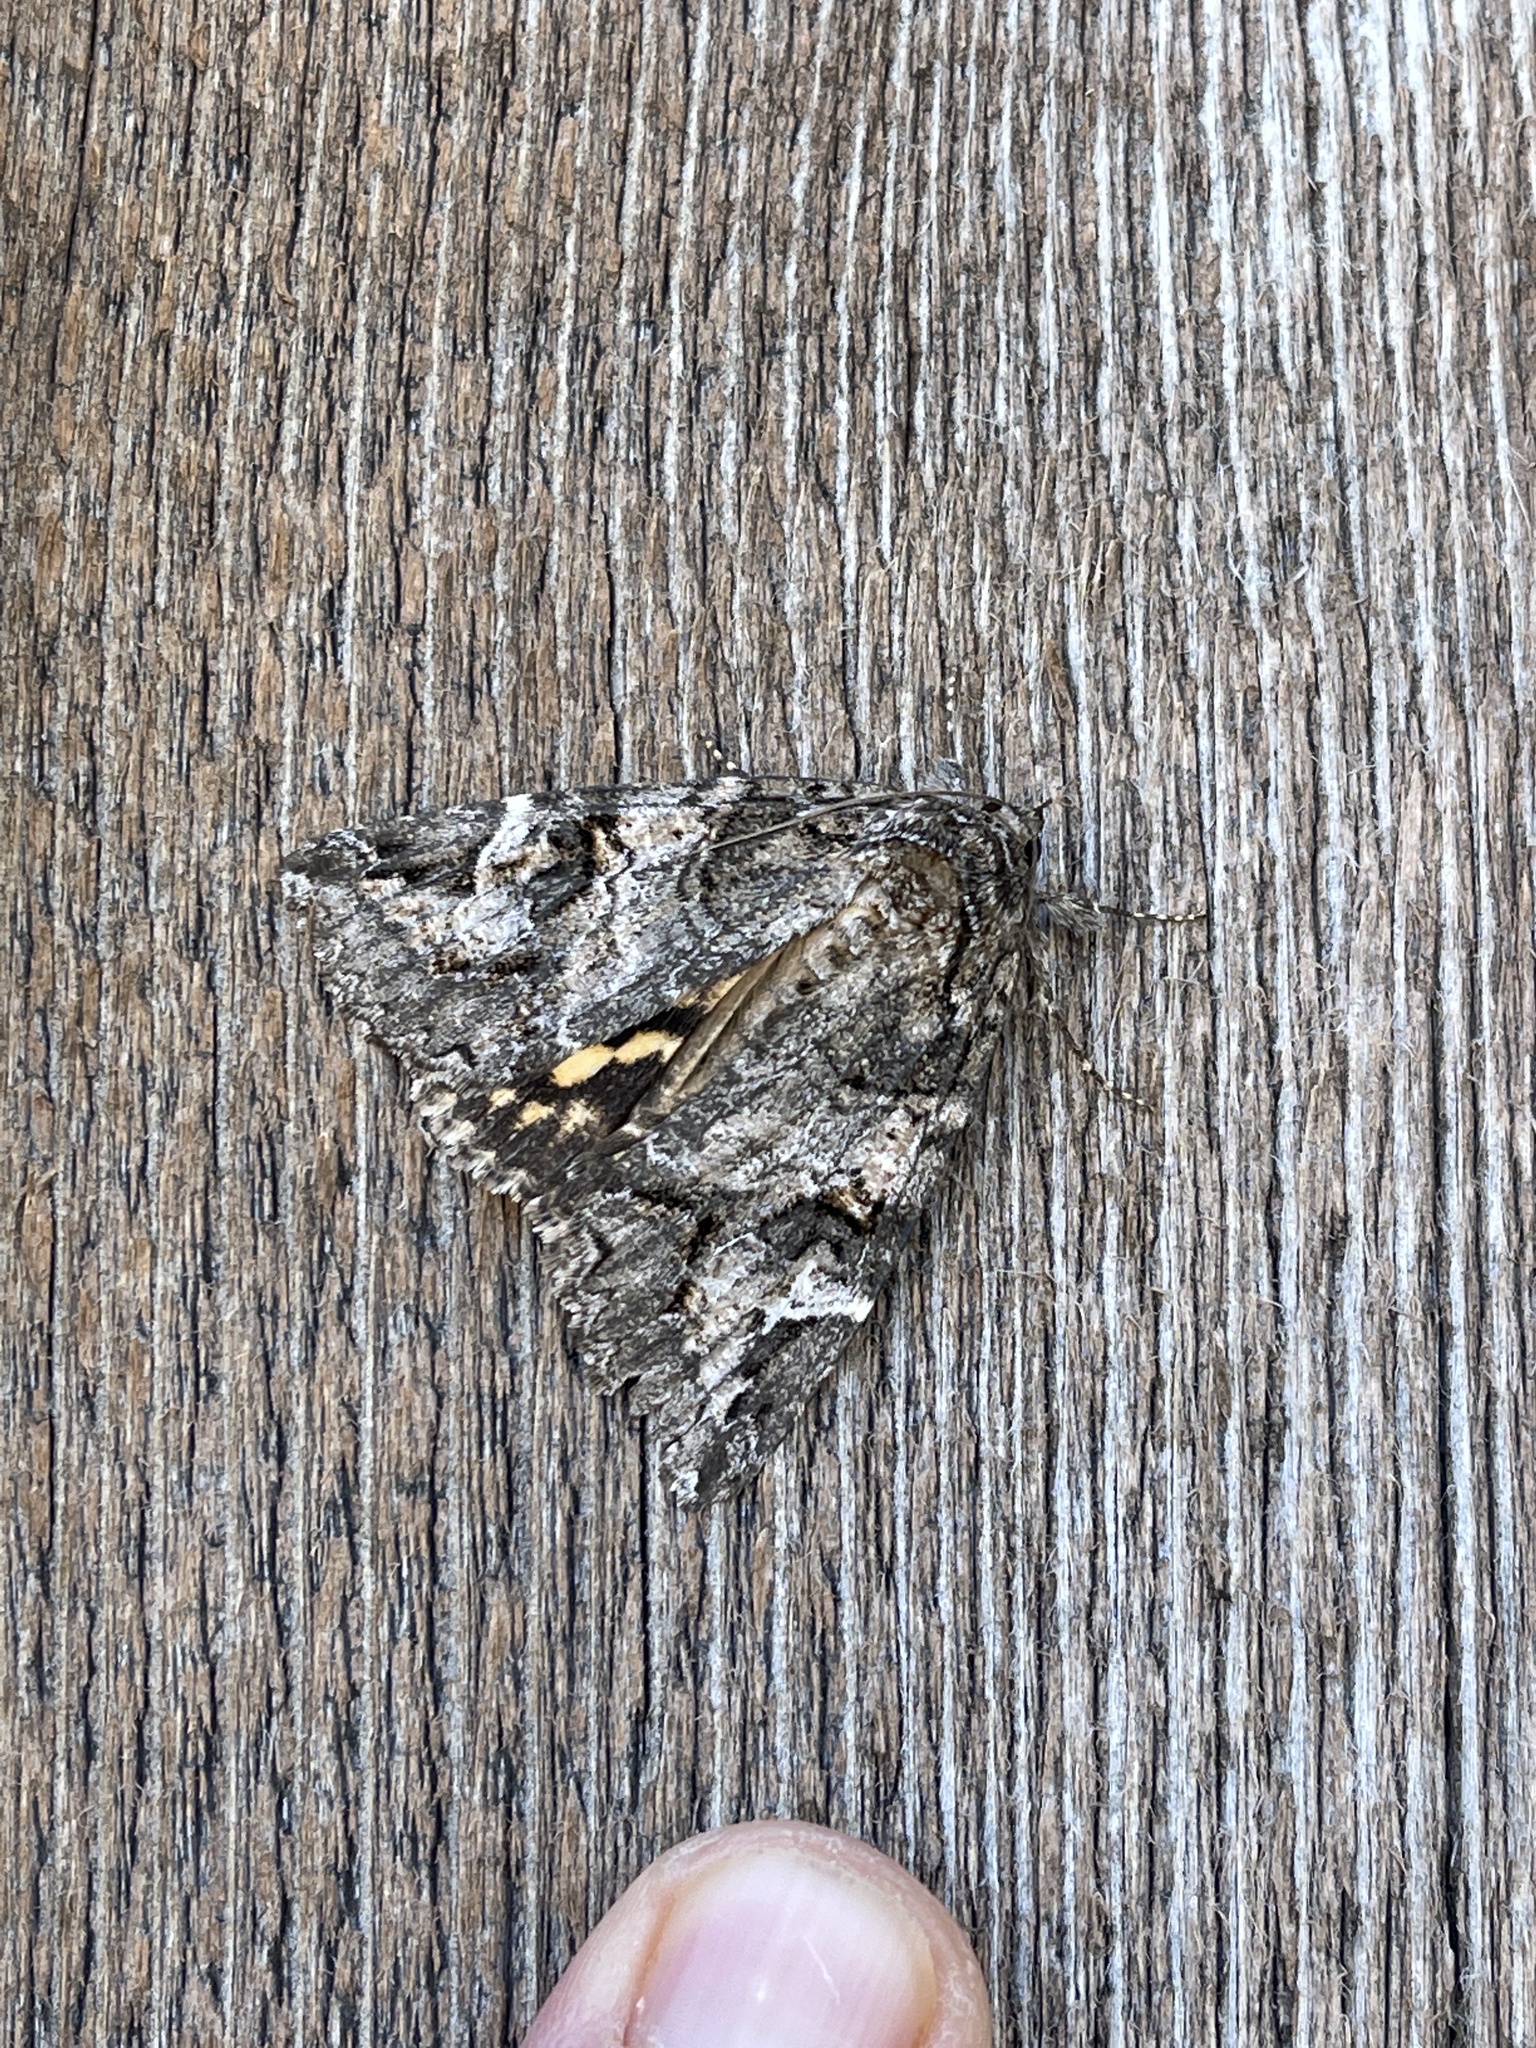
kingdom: Animalia
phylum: Arthropoda
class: Insecta
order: Lepidoptera
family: Erebidae
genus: Euparthenos
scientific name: Euparthenos nubilis
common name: Locust underwing
